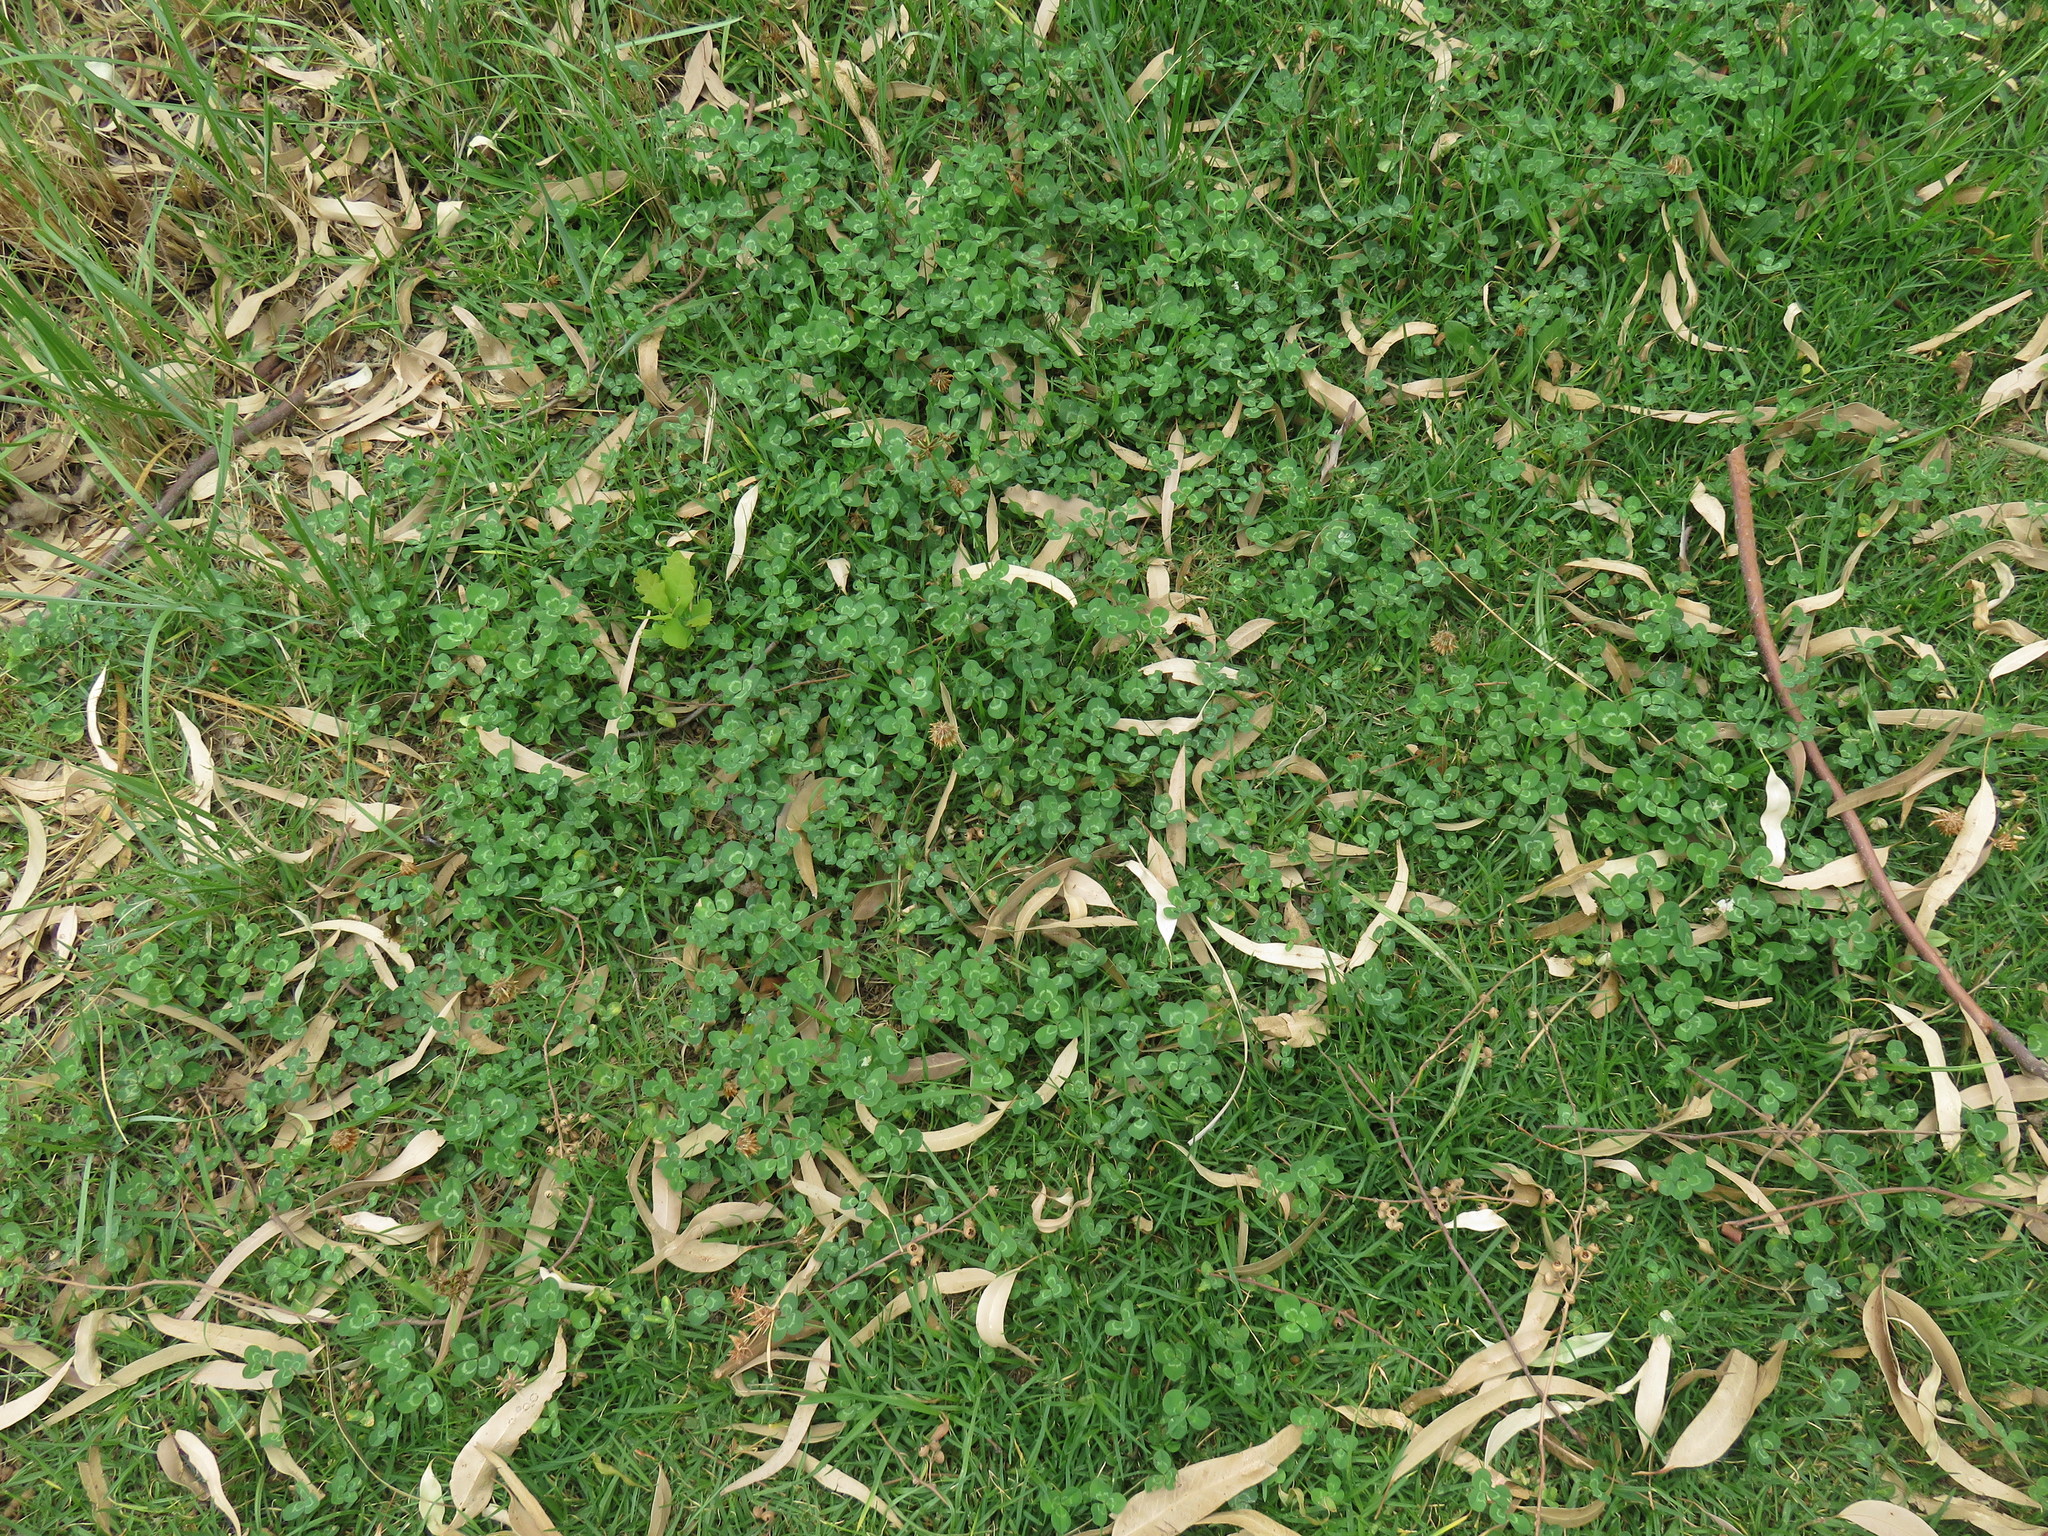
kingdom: Plantae
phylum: Tracheophyta
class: Magnoliopsida
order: Fabales
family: Fabaceae
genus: Trifolium
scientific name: Trifolium repens
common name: White clover
